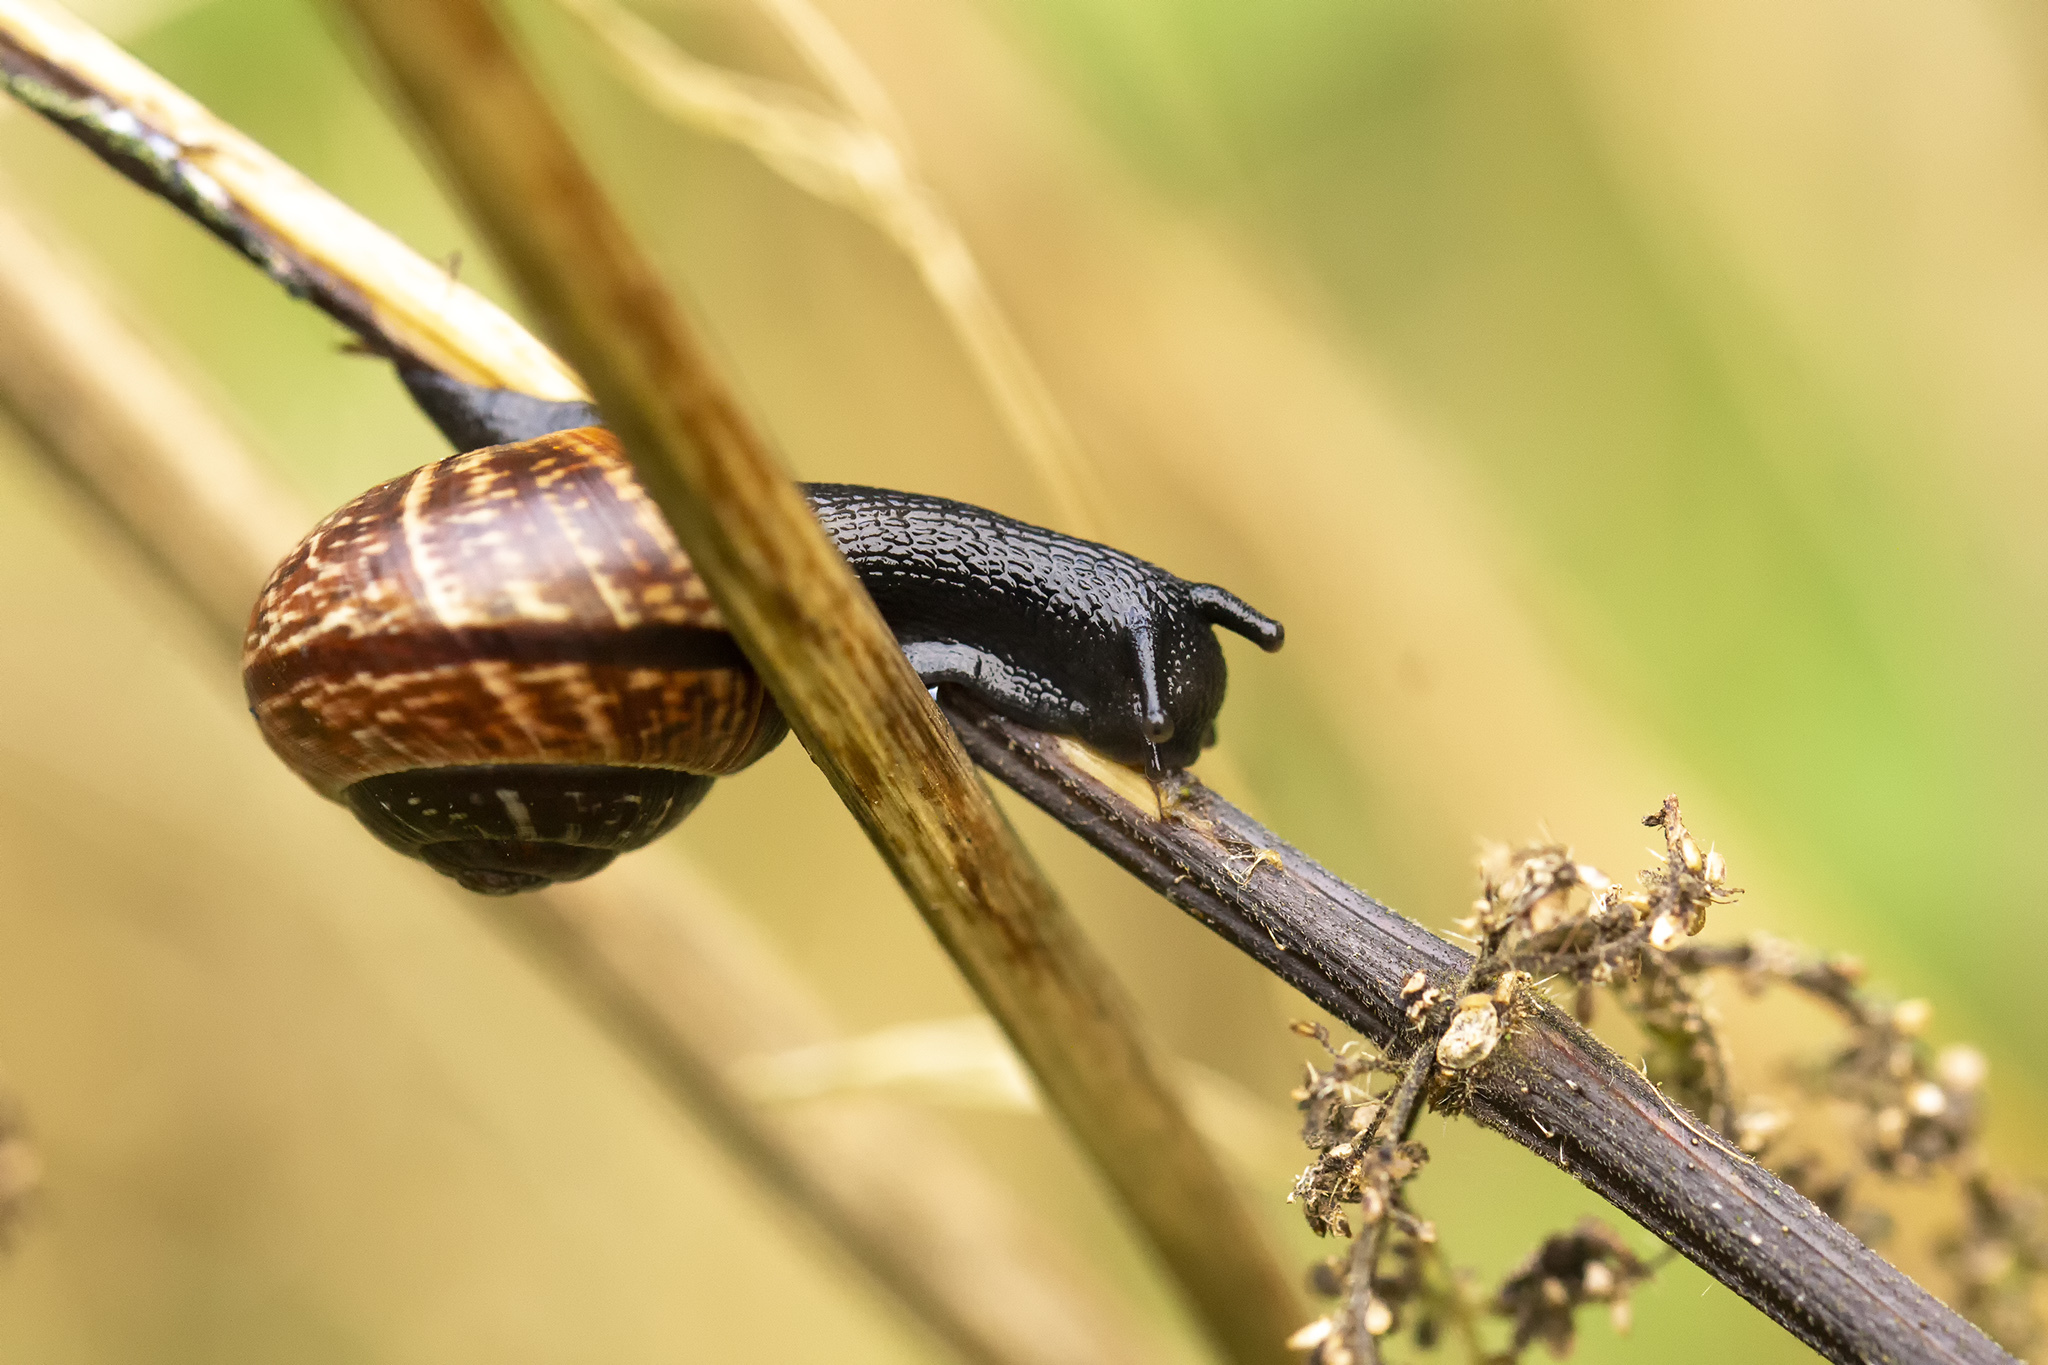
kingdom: Animalia
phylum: Mollusca
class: Gastropoda
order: Stylommatophora
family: Helicidae
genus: Arianta
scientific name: Arianta arbustorum
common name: Copse snail
